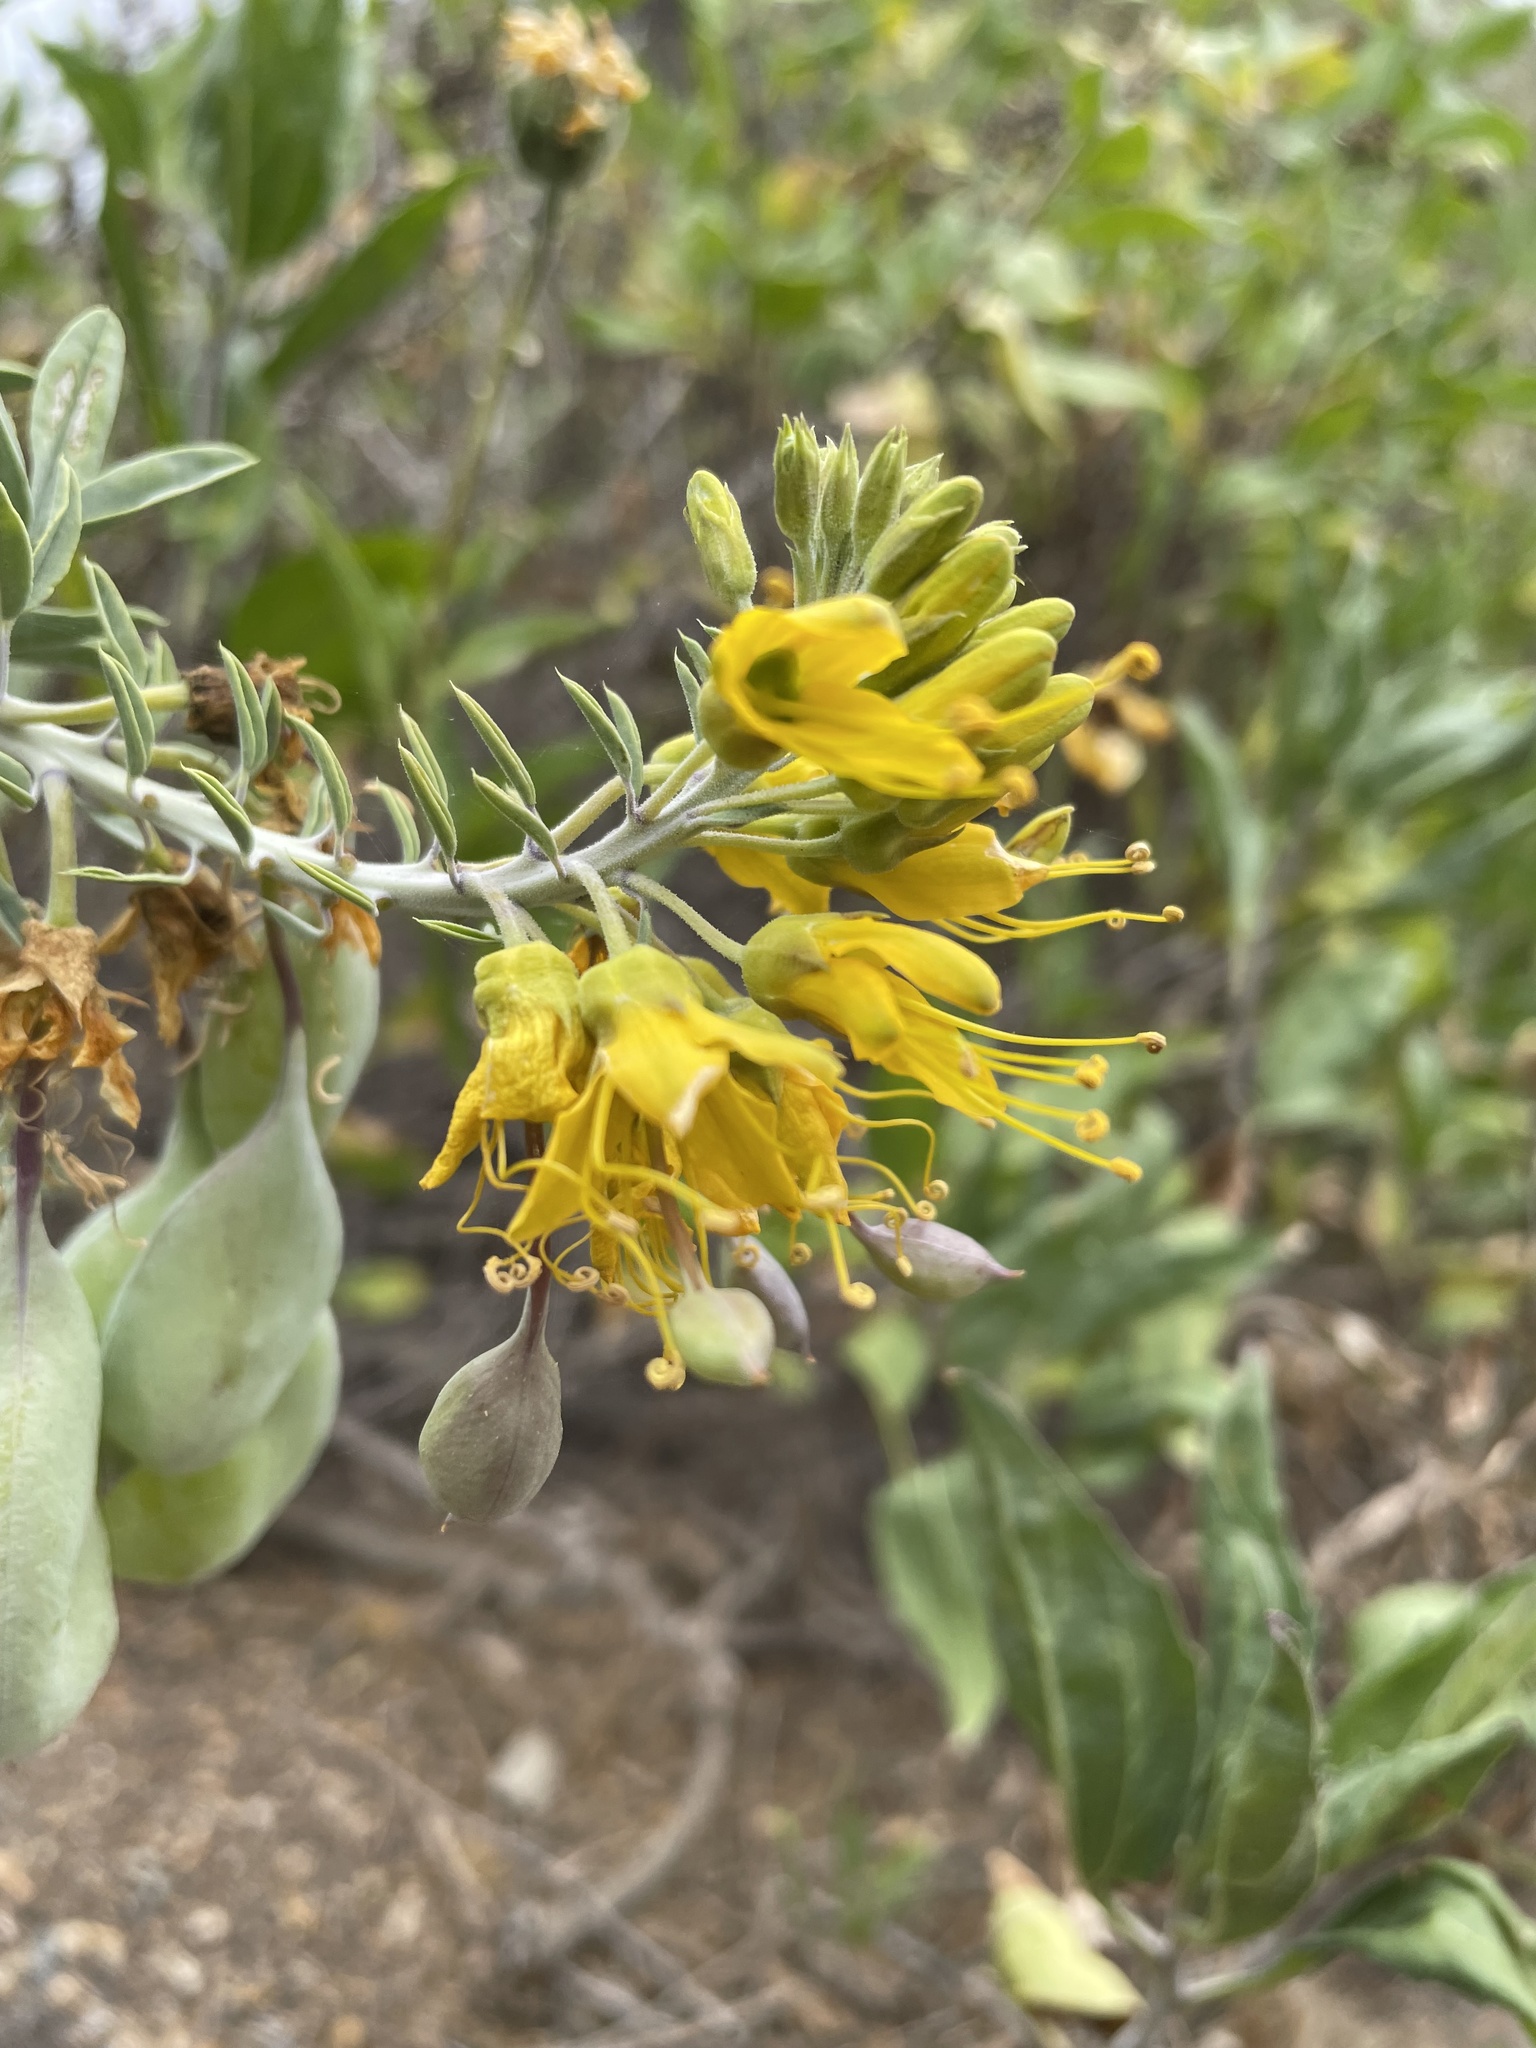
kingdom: Plantae
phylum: Tracheophyta
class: Magnoliopsida
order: Brassicales
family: Cleomaceae
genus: Cleomella
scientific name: Cleomella arborea
